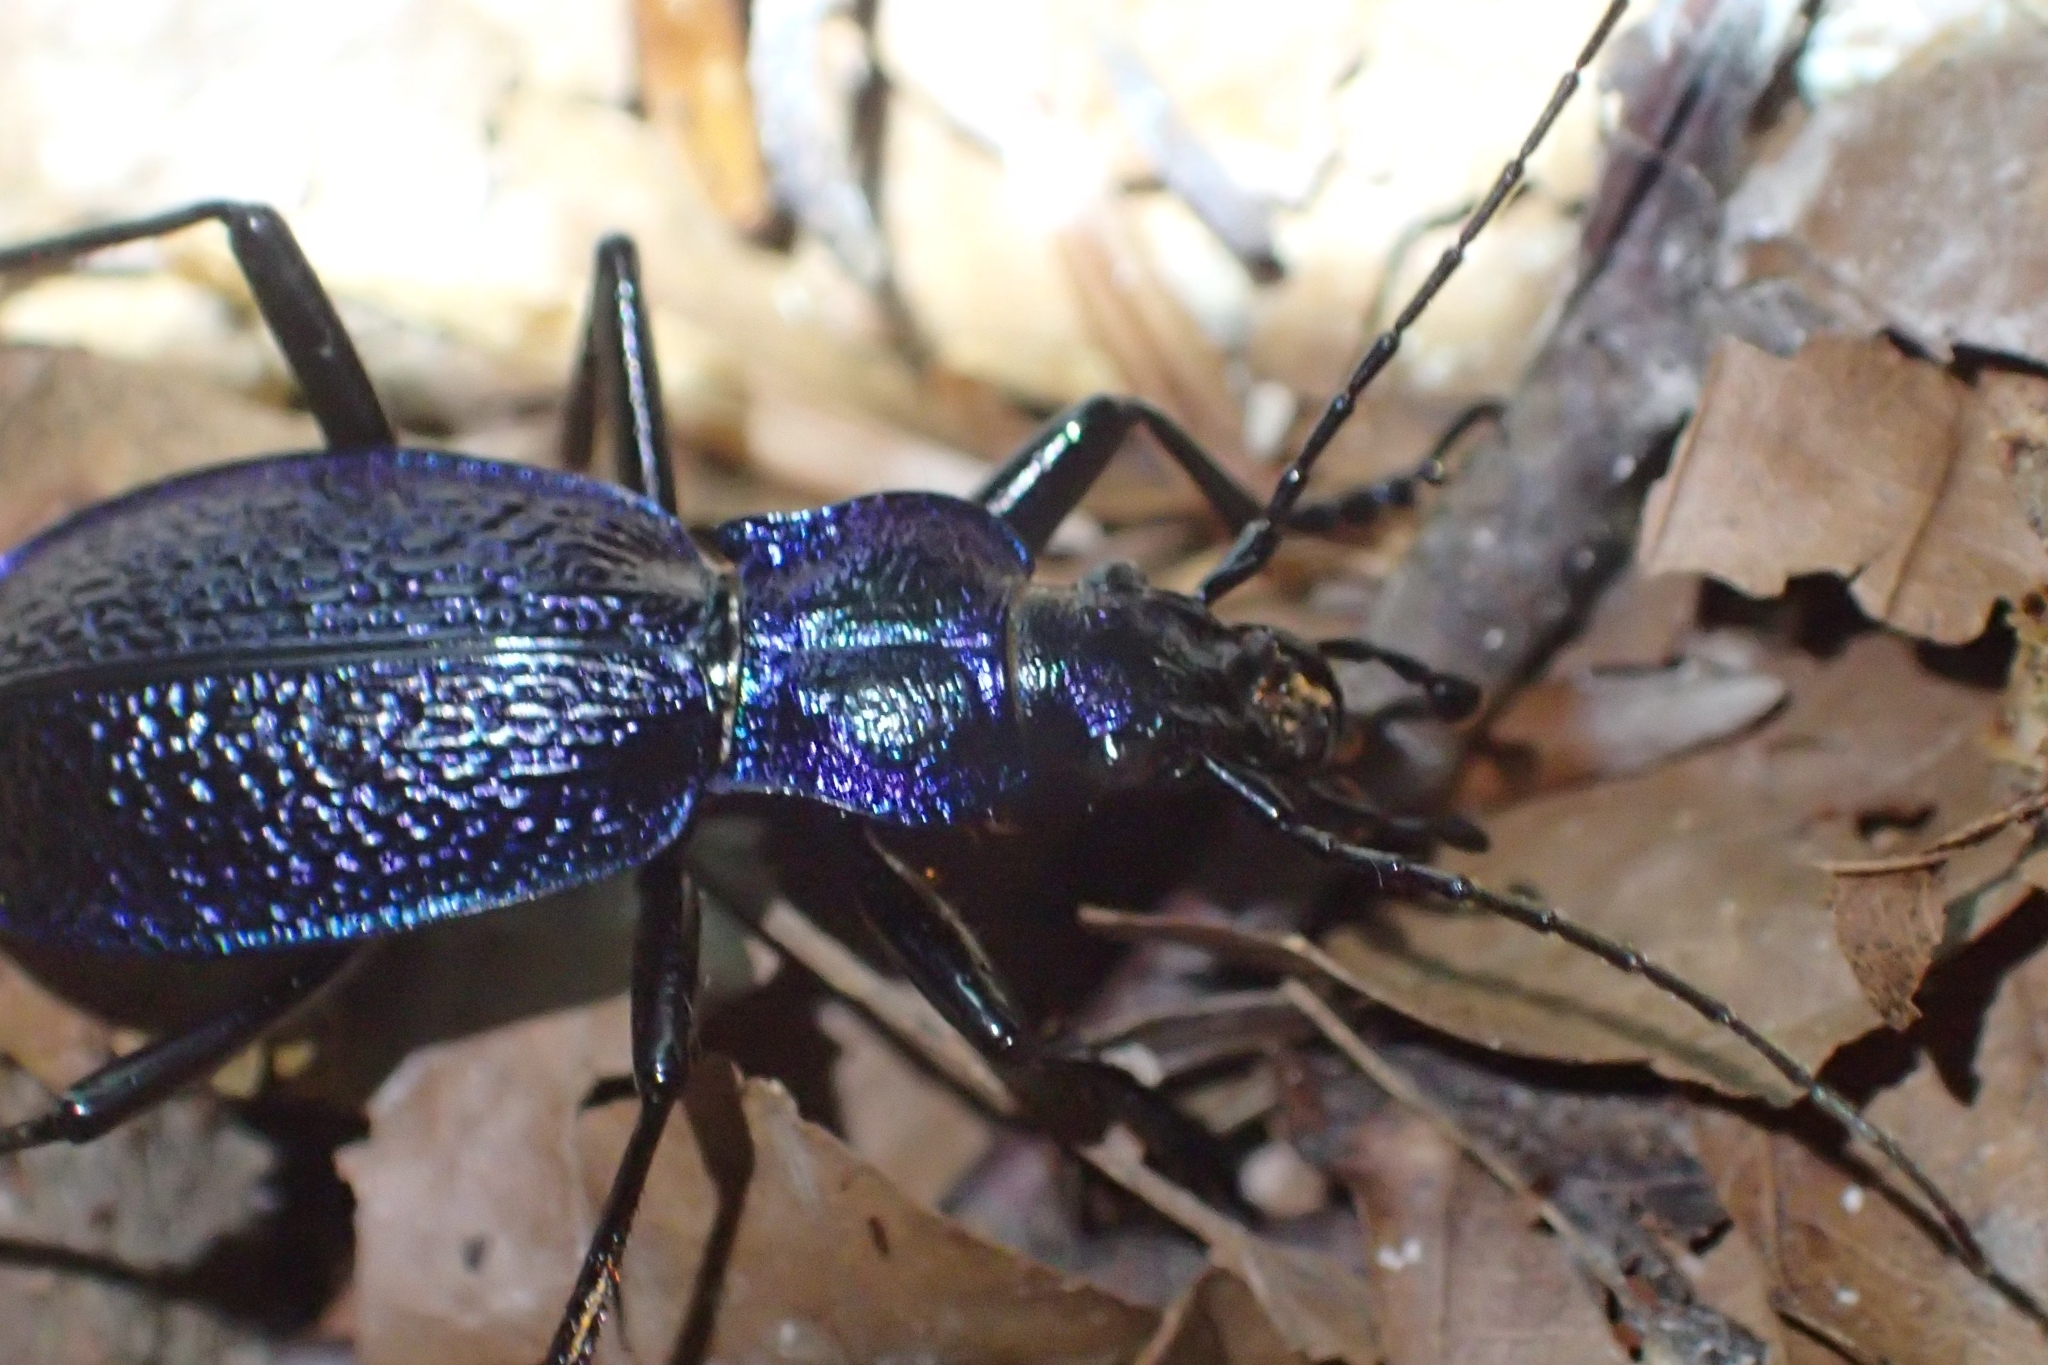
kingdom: Animalia
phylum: Arthropoda
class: Insecta
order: Coleoptera
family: Carabidae
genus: Carabus
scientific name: Carabus intricatus
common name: Blue ground beetle
